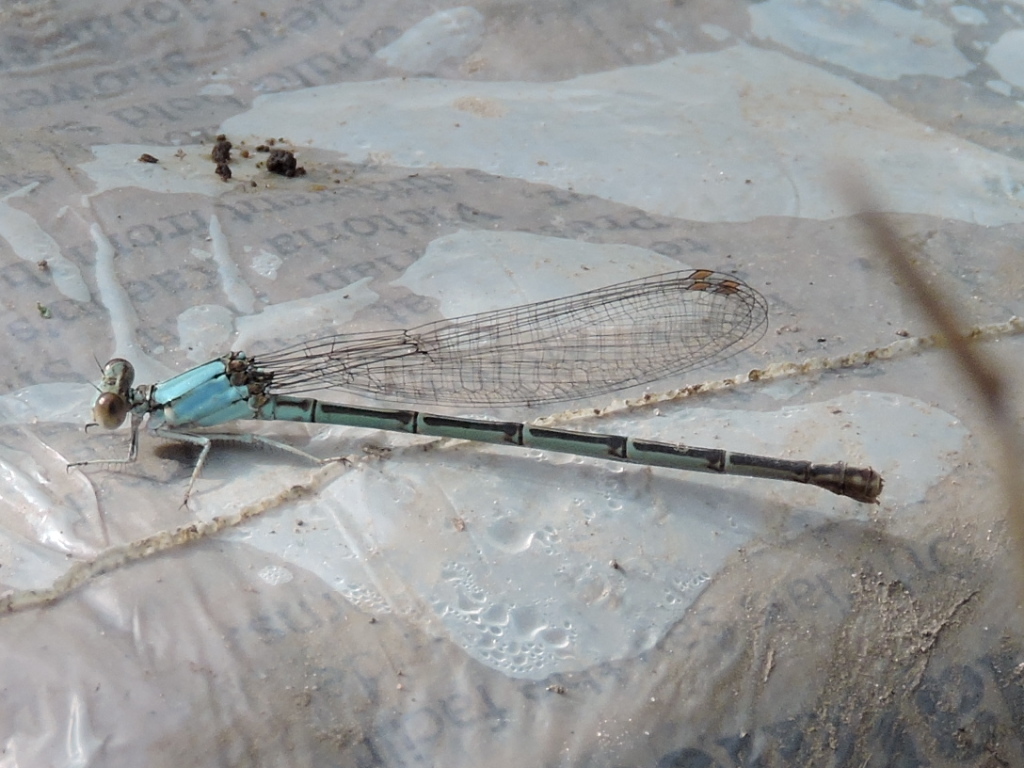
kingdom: Animalia
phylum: Arthropoda
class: Insecta
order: Odonata
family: Coenagrionidae
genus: Argia
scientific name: Argia apicalis
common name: Blue-fronted dancer
